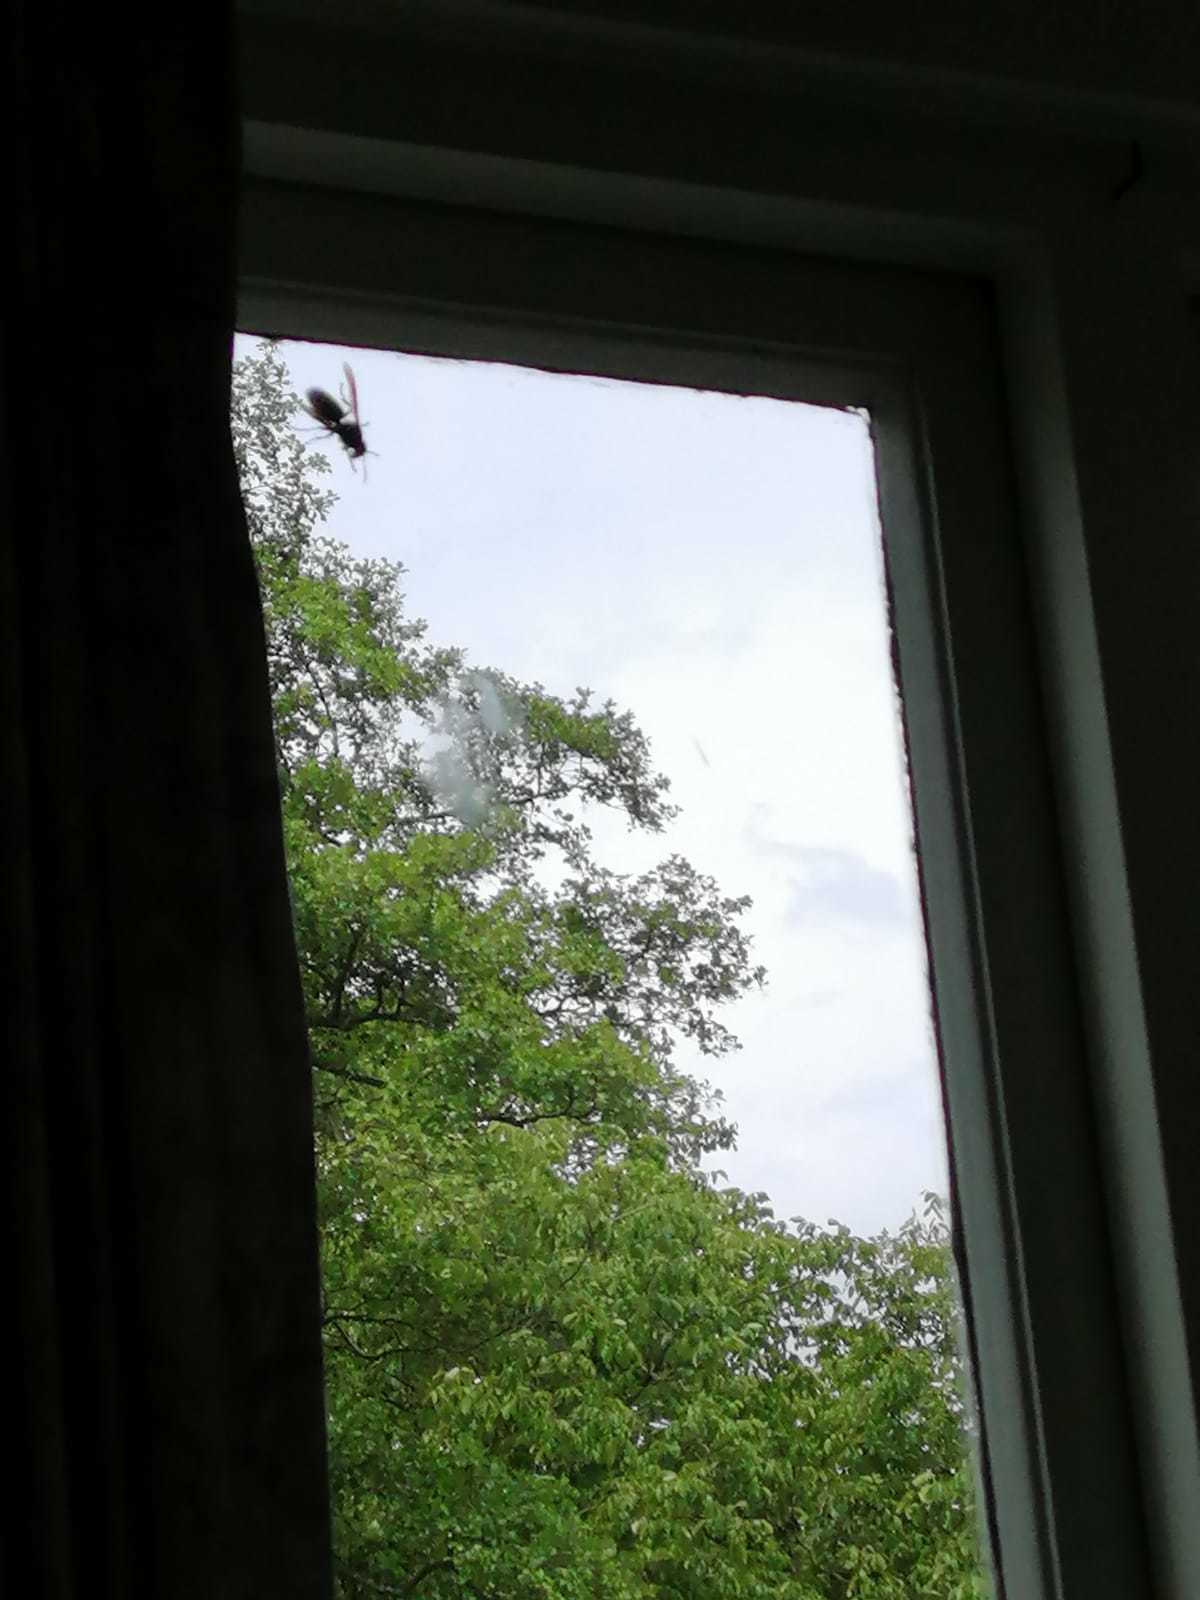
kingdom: Animalia
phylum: Arthropoda
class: Insecta
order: Hymenoptera
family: Vespidae
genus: Vespa
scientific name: Vespa crabro
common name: Hornet
